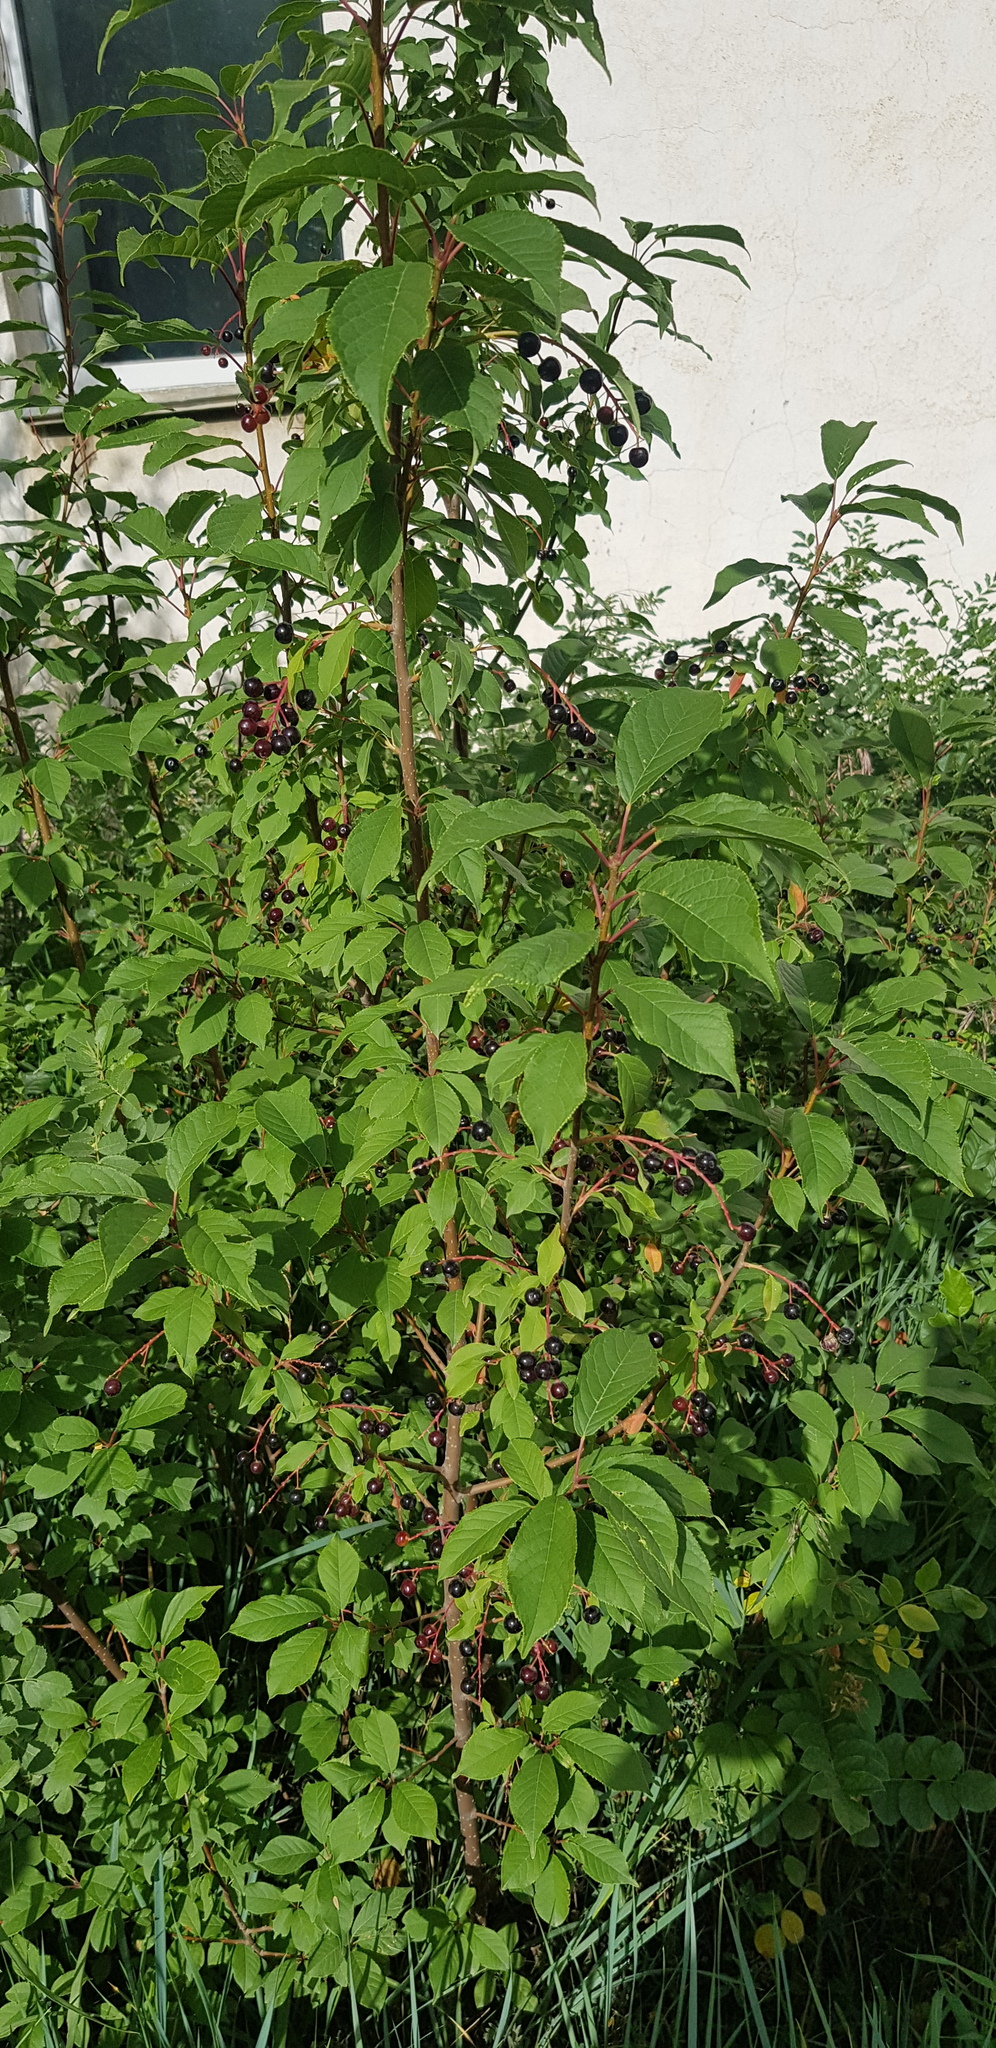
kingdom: Plantae
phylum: Tracheophyta
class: Magnoliopsida
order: Rosales
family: Rosaceae
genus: Prunus
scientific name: Prunus padus
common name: Bird cherry
